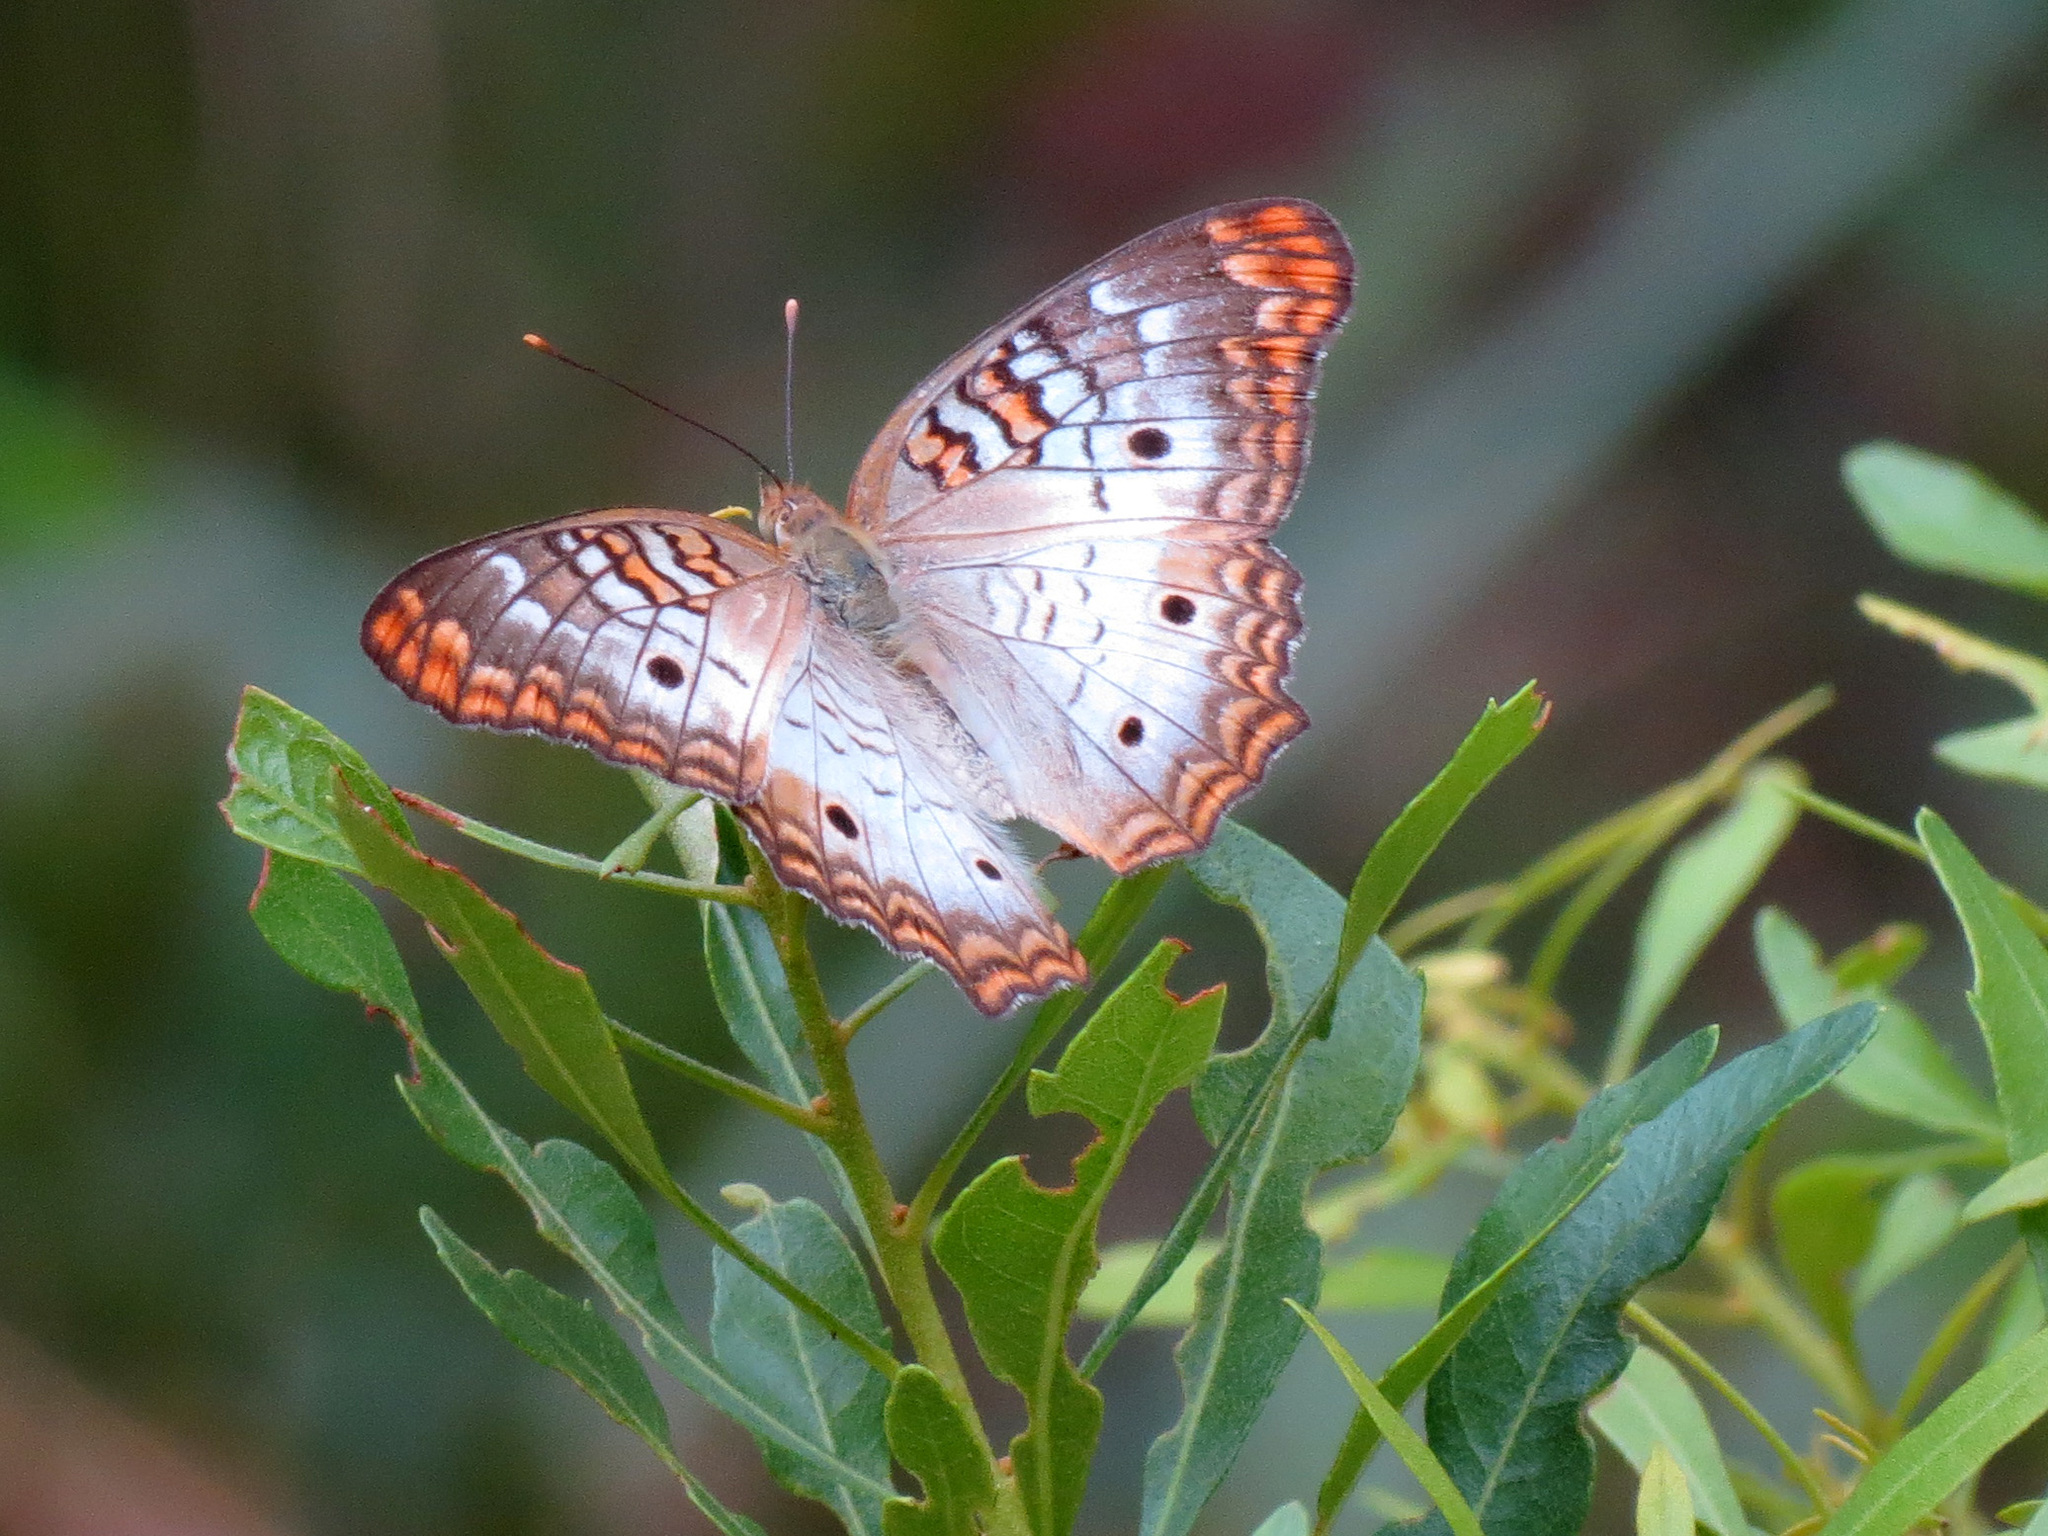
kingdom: Animalia
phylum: Arthropoda
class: Insecta
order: Lepidoptera
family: Nymphalidae
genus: Anartia
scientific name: Anartia jatrophae
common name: White peacock
